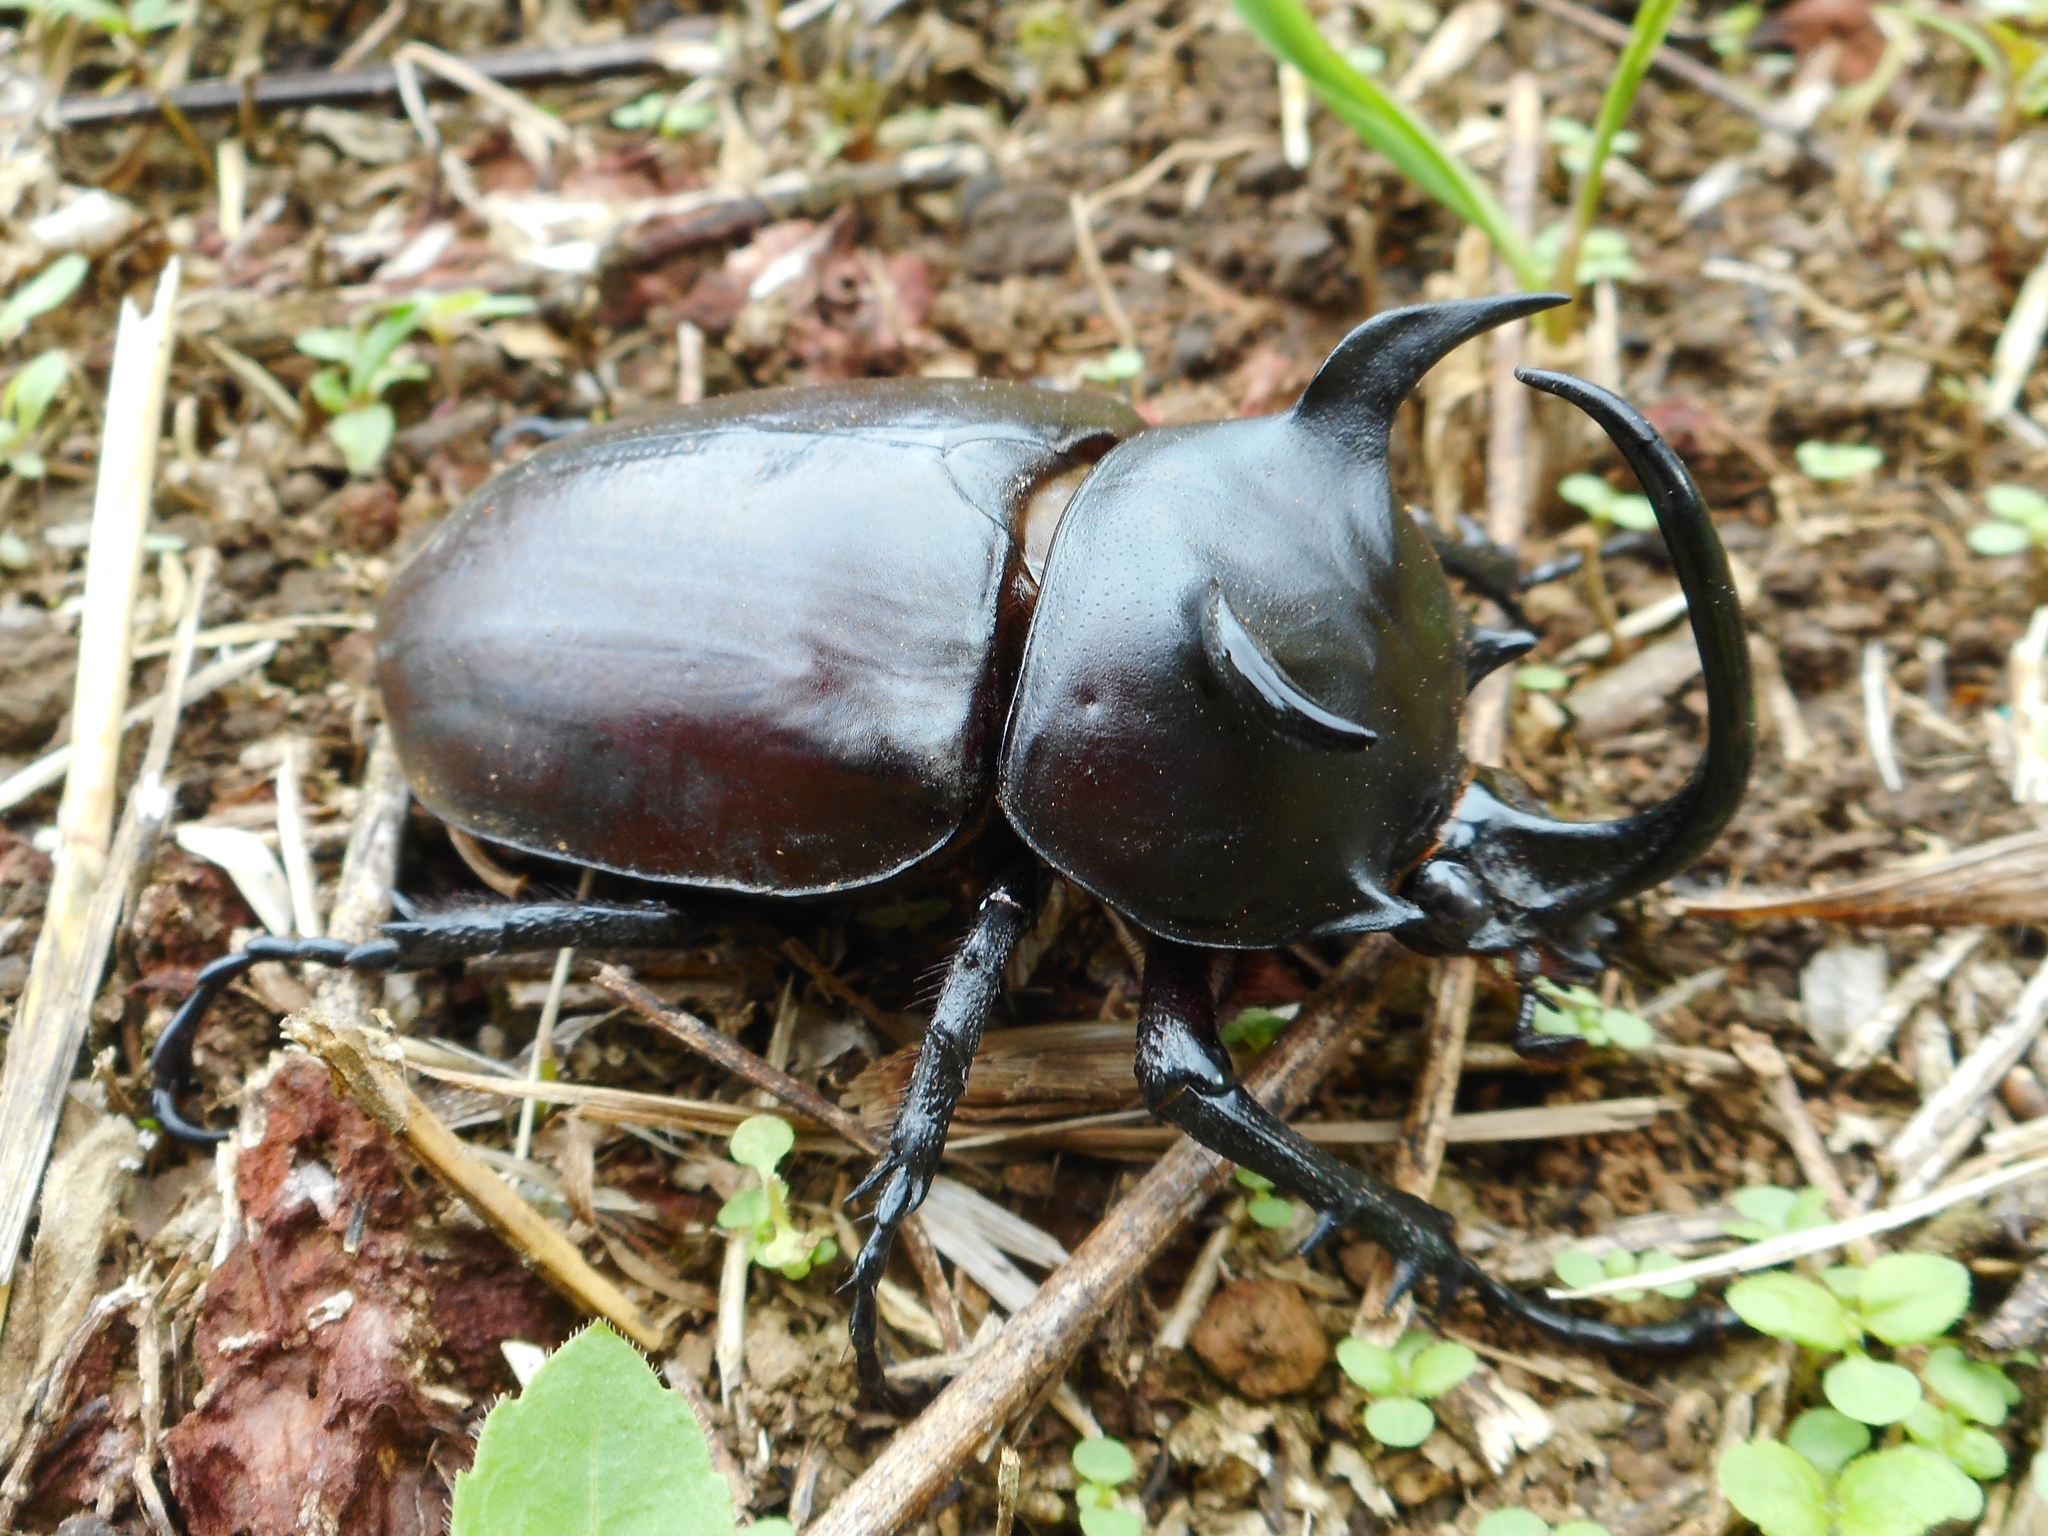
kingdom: Animalia
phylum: Arthropoda
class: Insecta
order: Coleoptera
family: Scarabaeidae
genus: Eupatorus
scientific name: Eupatorus siamensis
